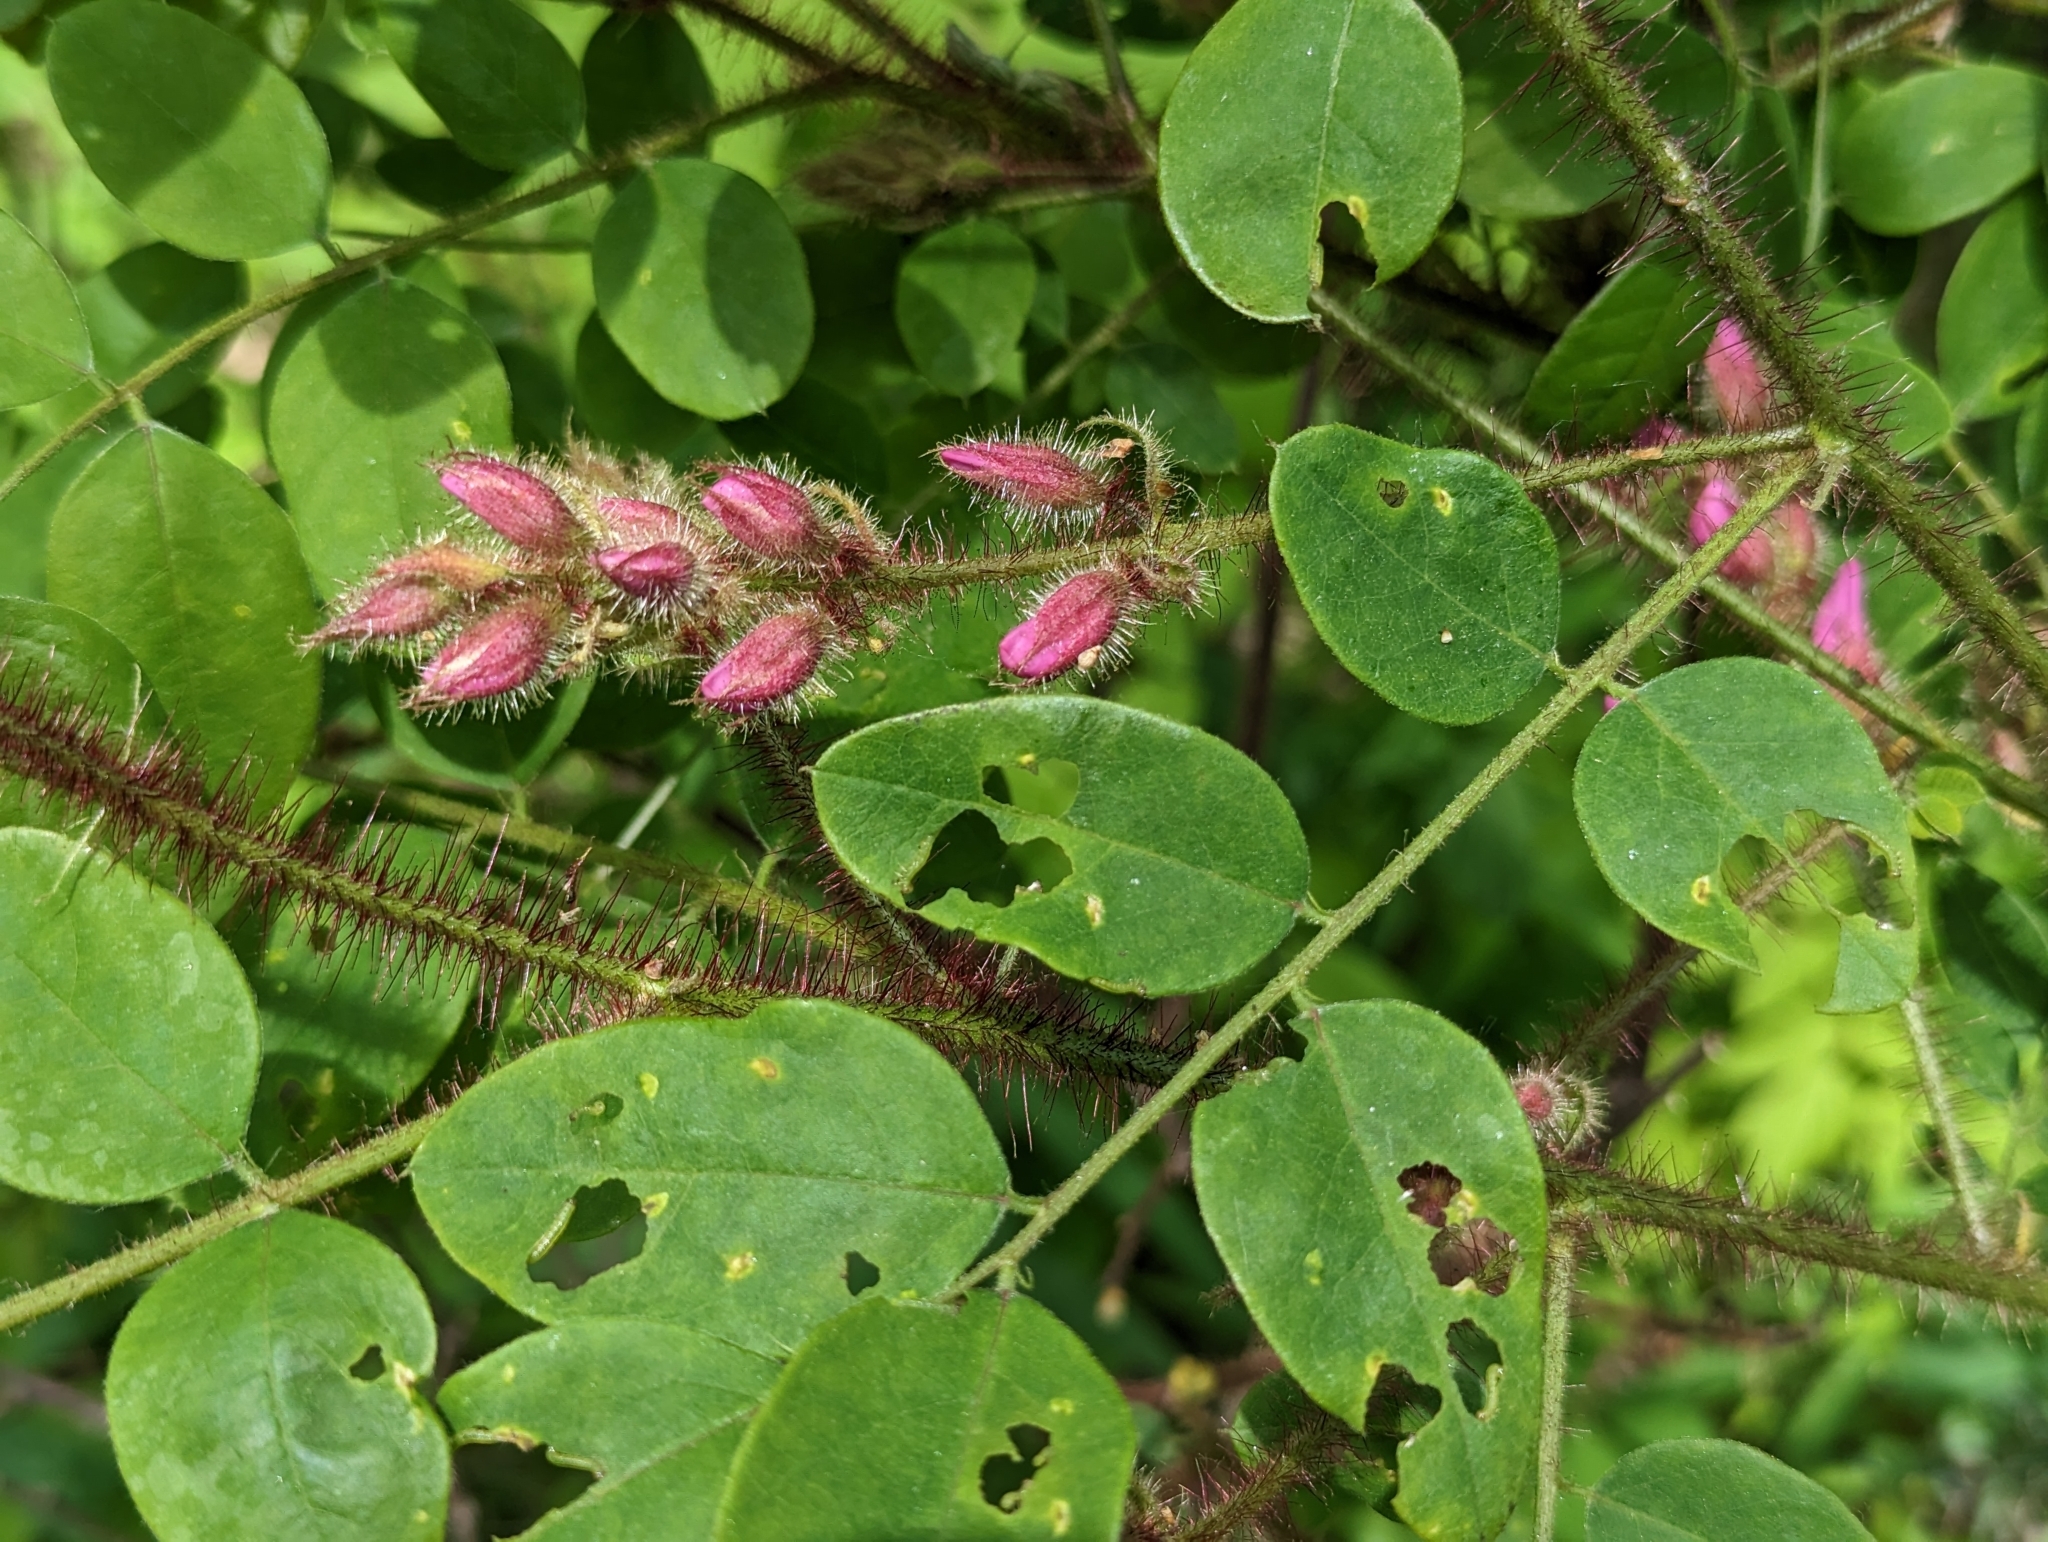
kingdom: Plantae
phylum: Tracheophyta
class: Magnoliopsida
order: Fabales
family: Fabaceae
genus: Robinia
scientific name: Robinia hispida
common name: Bristly locust
